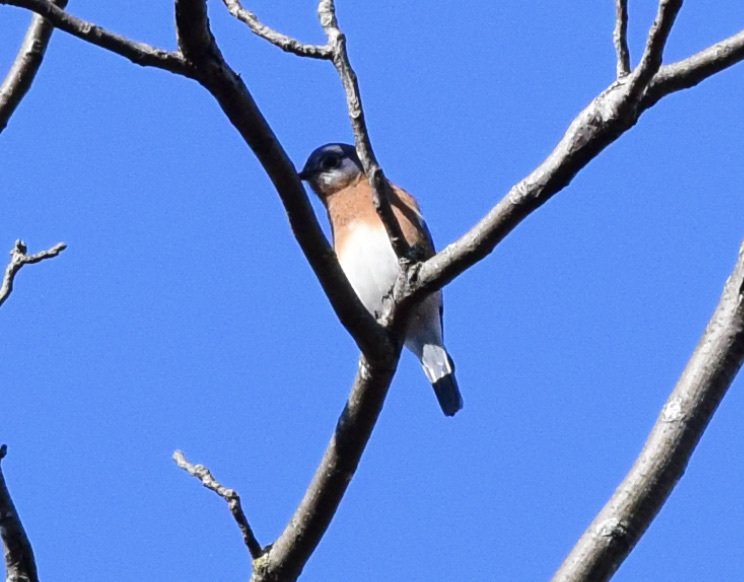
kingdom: Animalia
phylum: Chordata
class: Aves
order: Passeriformes
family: Turdidae
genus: Sialia
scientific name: Sialia sialis
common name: Eastern bluebird
